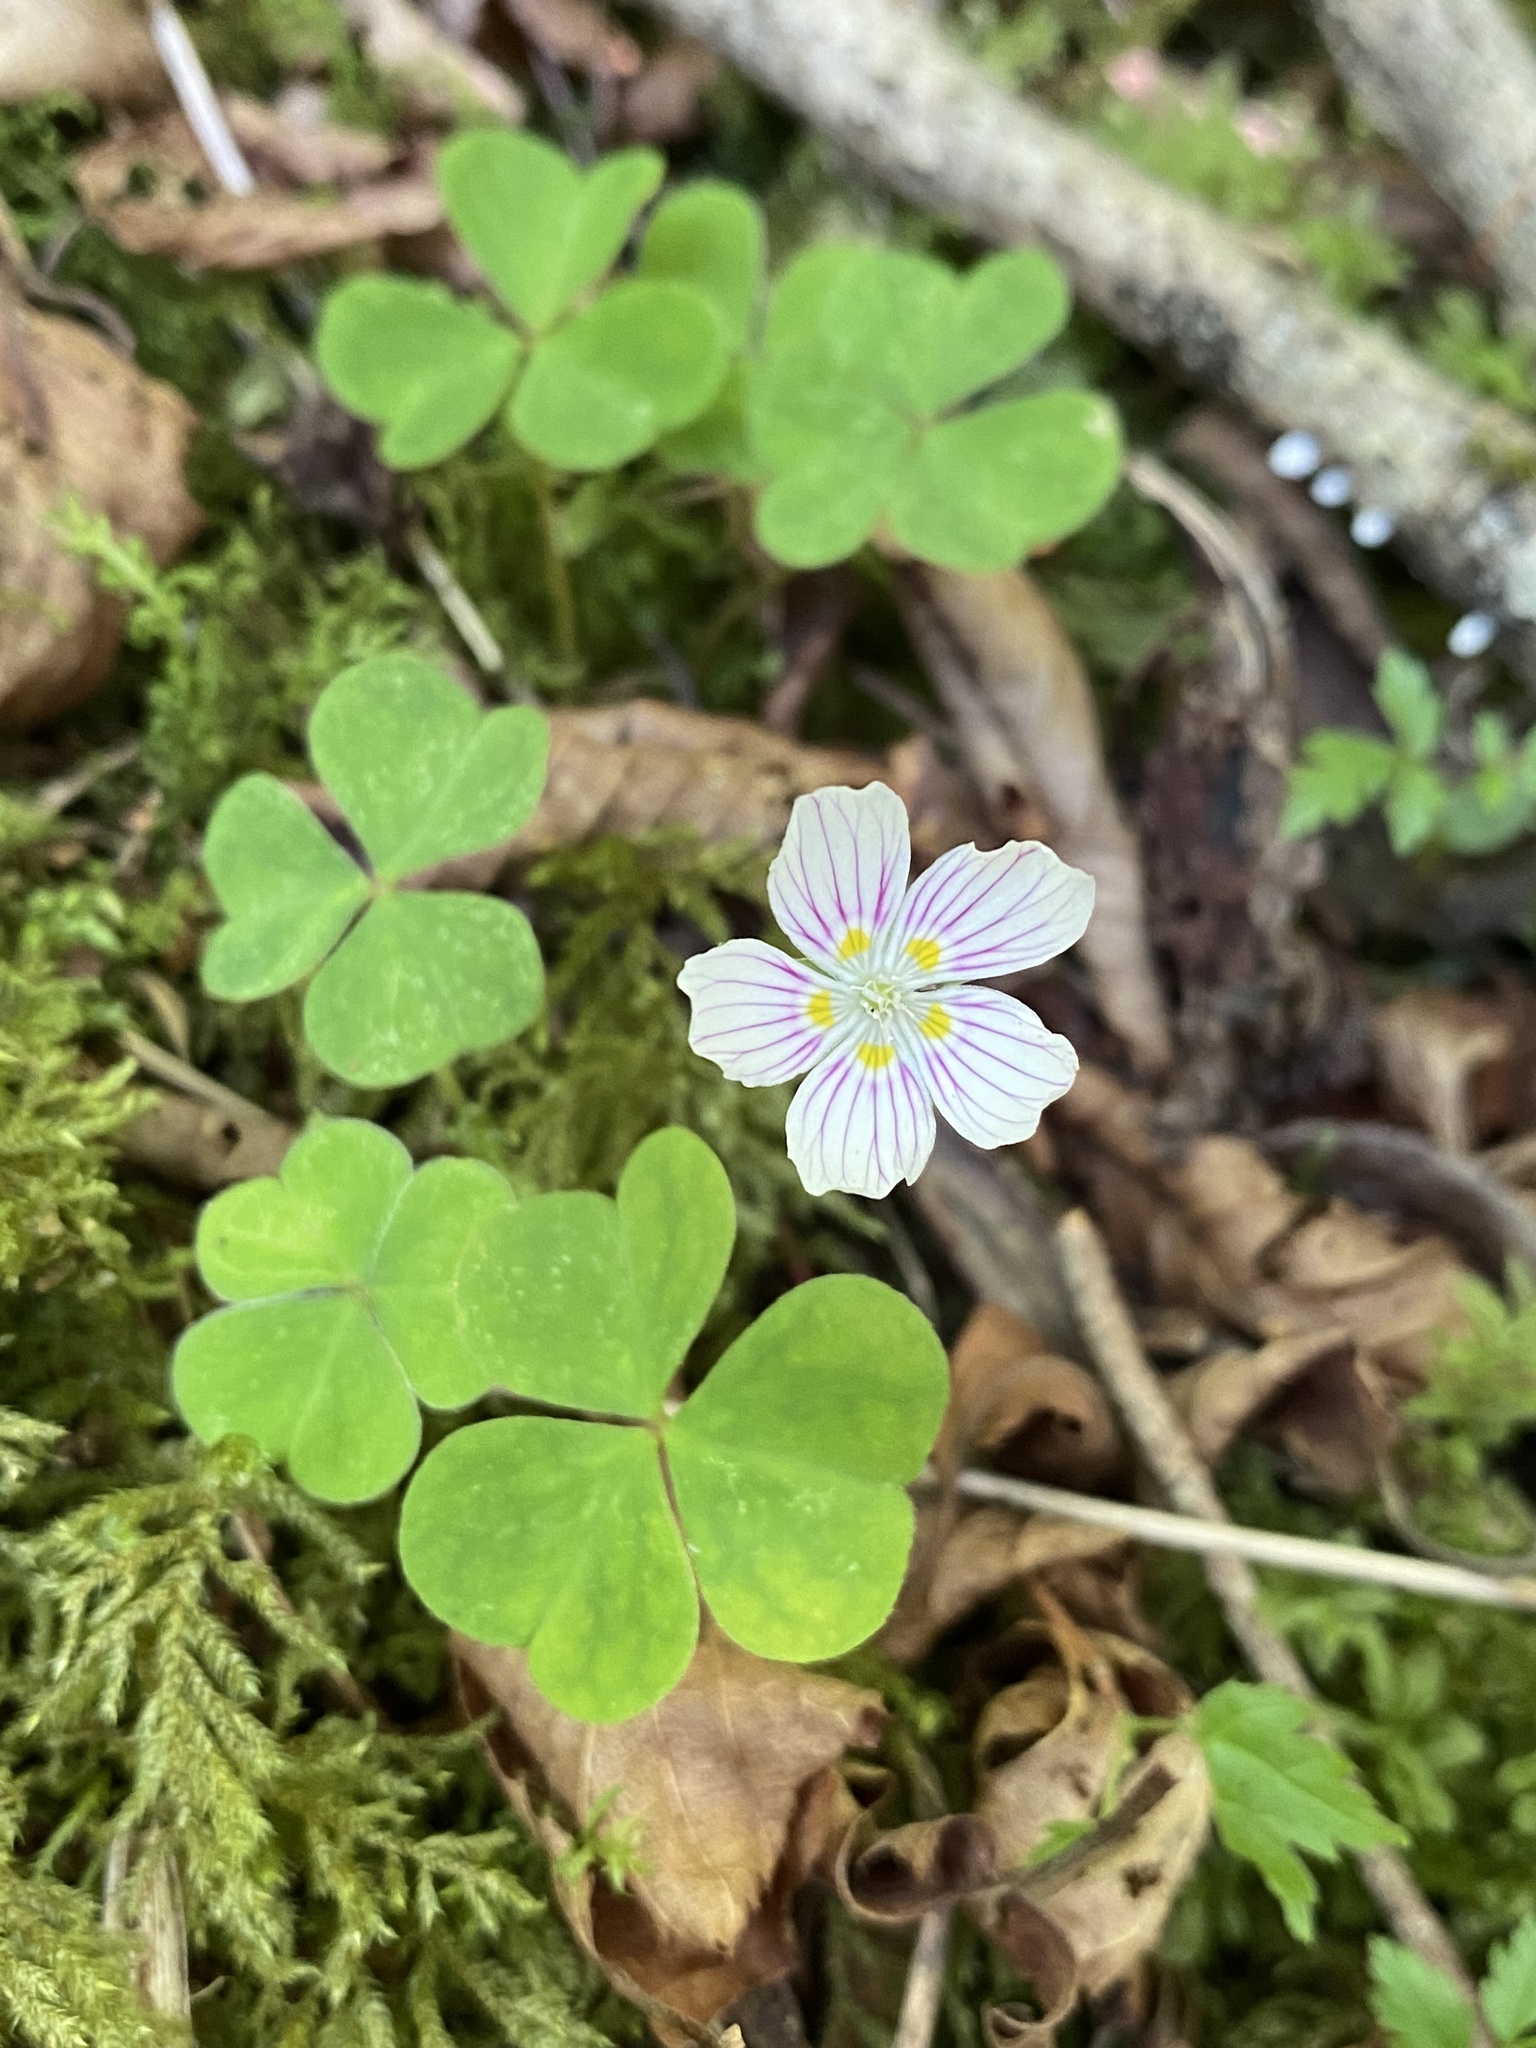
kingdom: Plantae
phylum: Tracheophyta
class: Magnoliopsida
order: Oxalidales
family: Oxalidaceae
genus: Oxalis
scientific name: Oxalis montana
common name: American wood-sorrel
